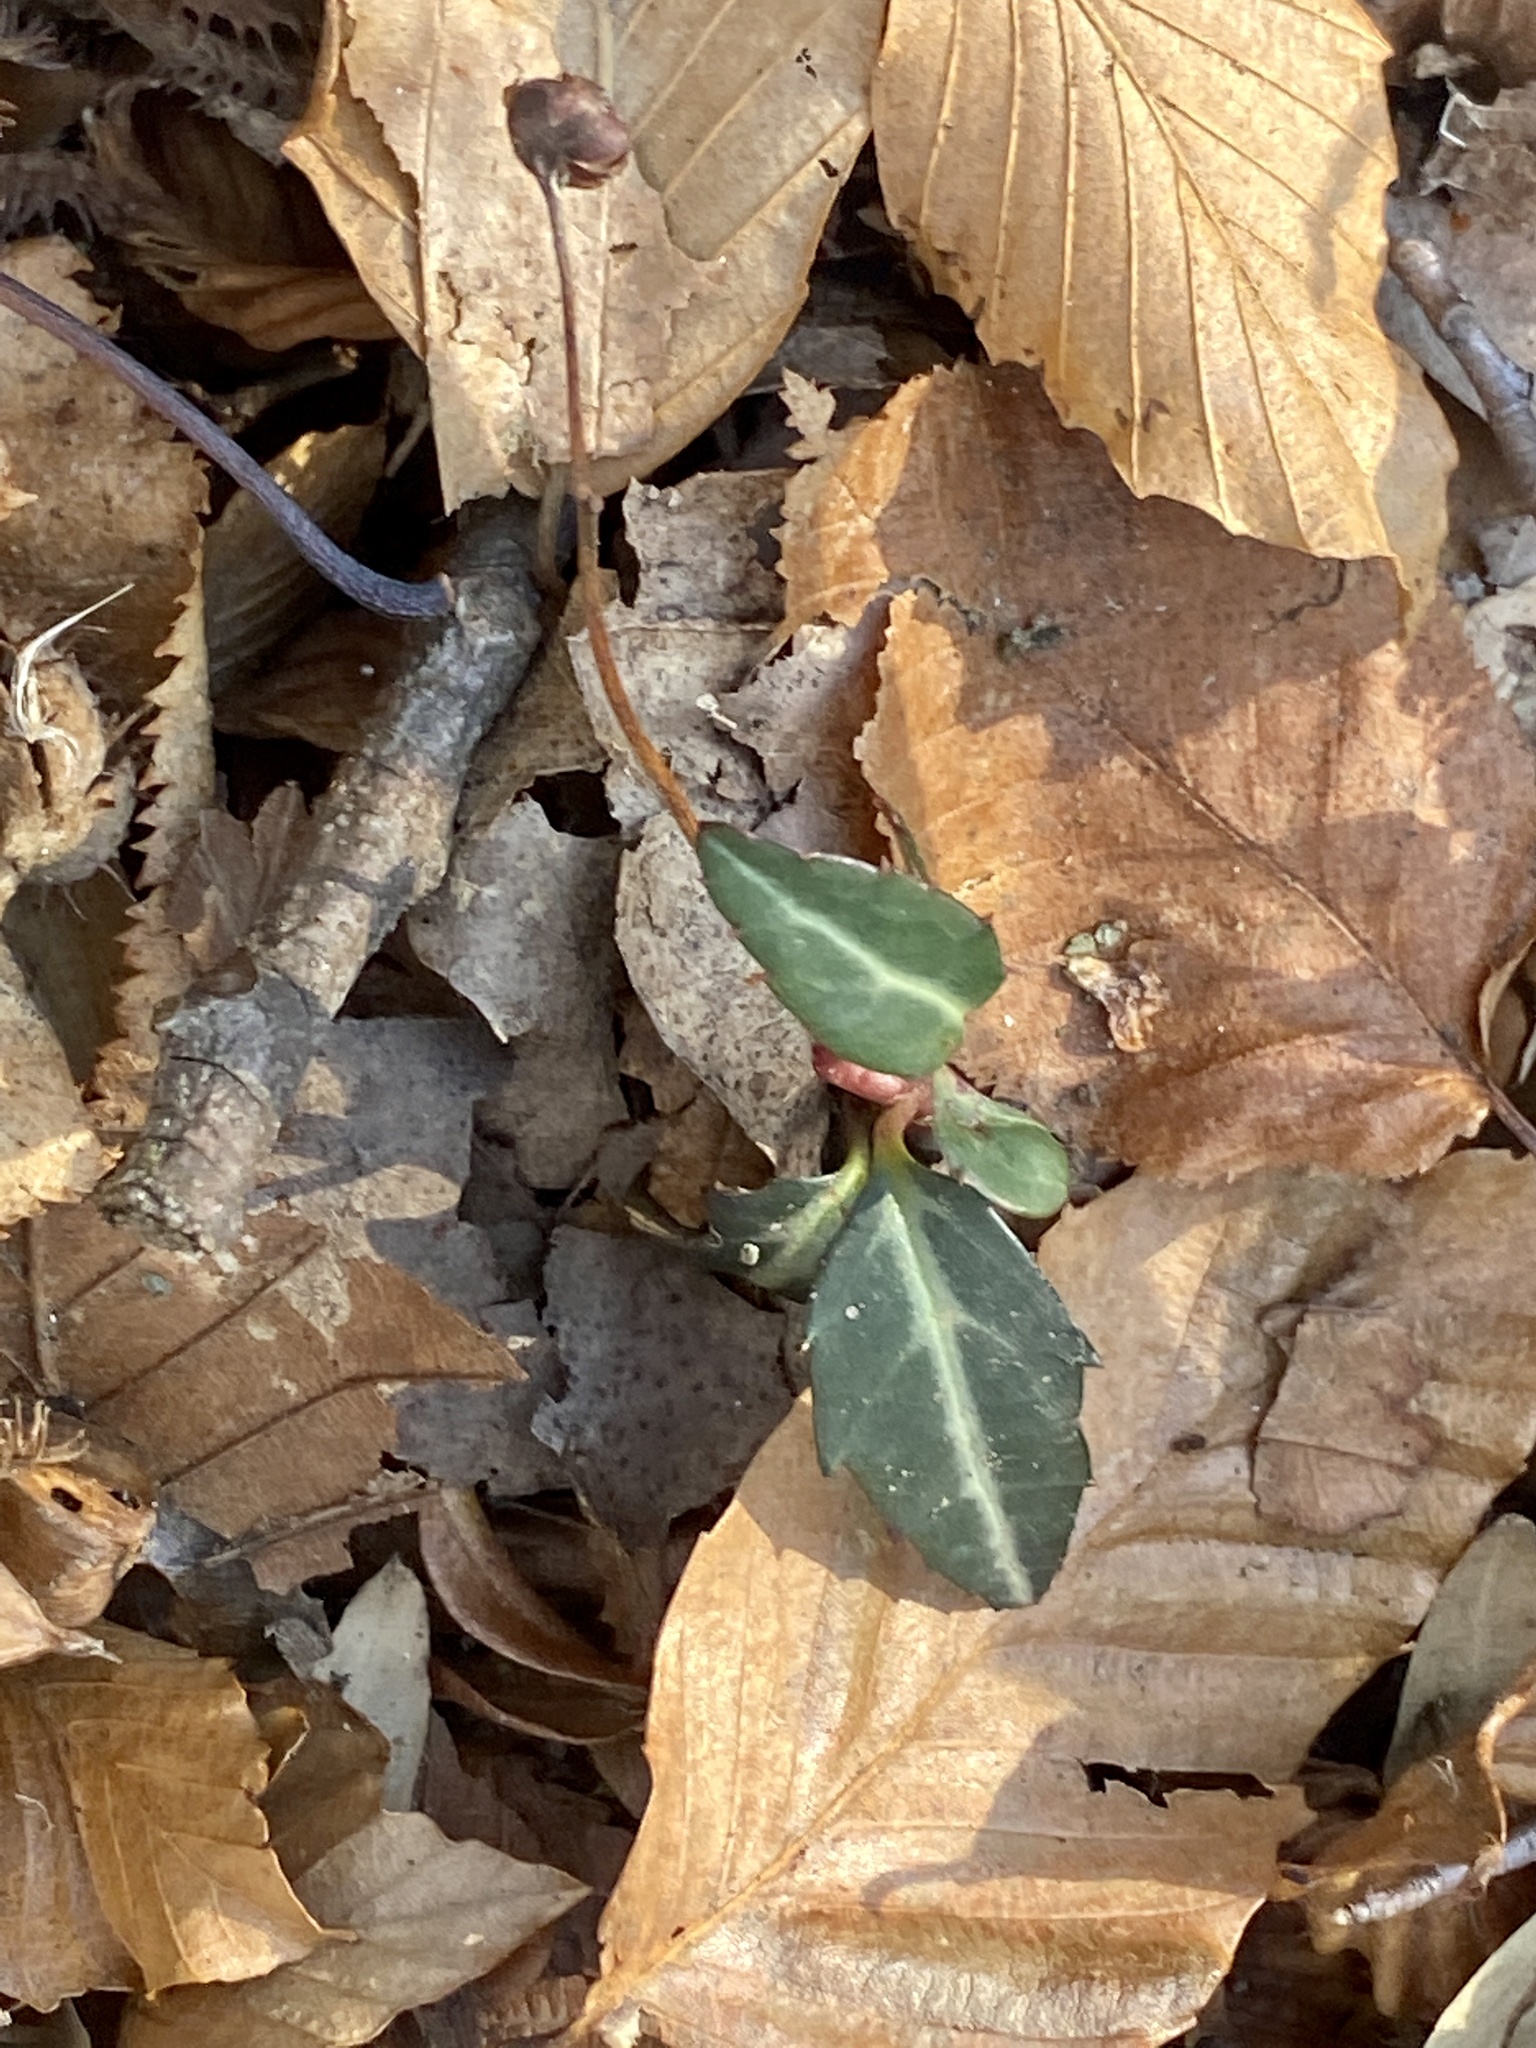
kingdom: Plantae
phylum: Tracheophyta
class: Magnoliopsida
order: Ericales
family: Ericaceae
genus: Chimaphila
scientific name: Chimaphila maculata
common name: Spotted pipsissewa
